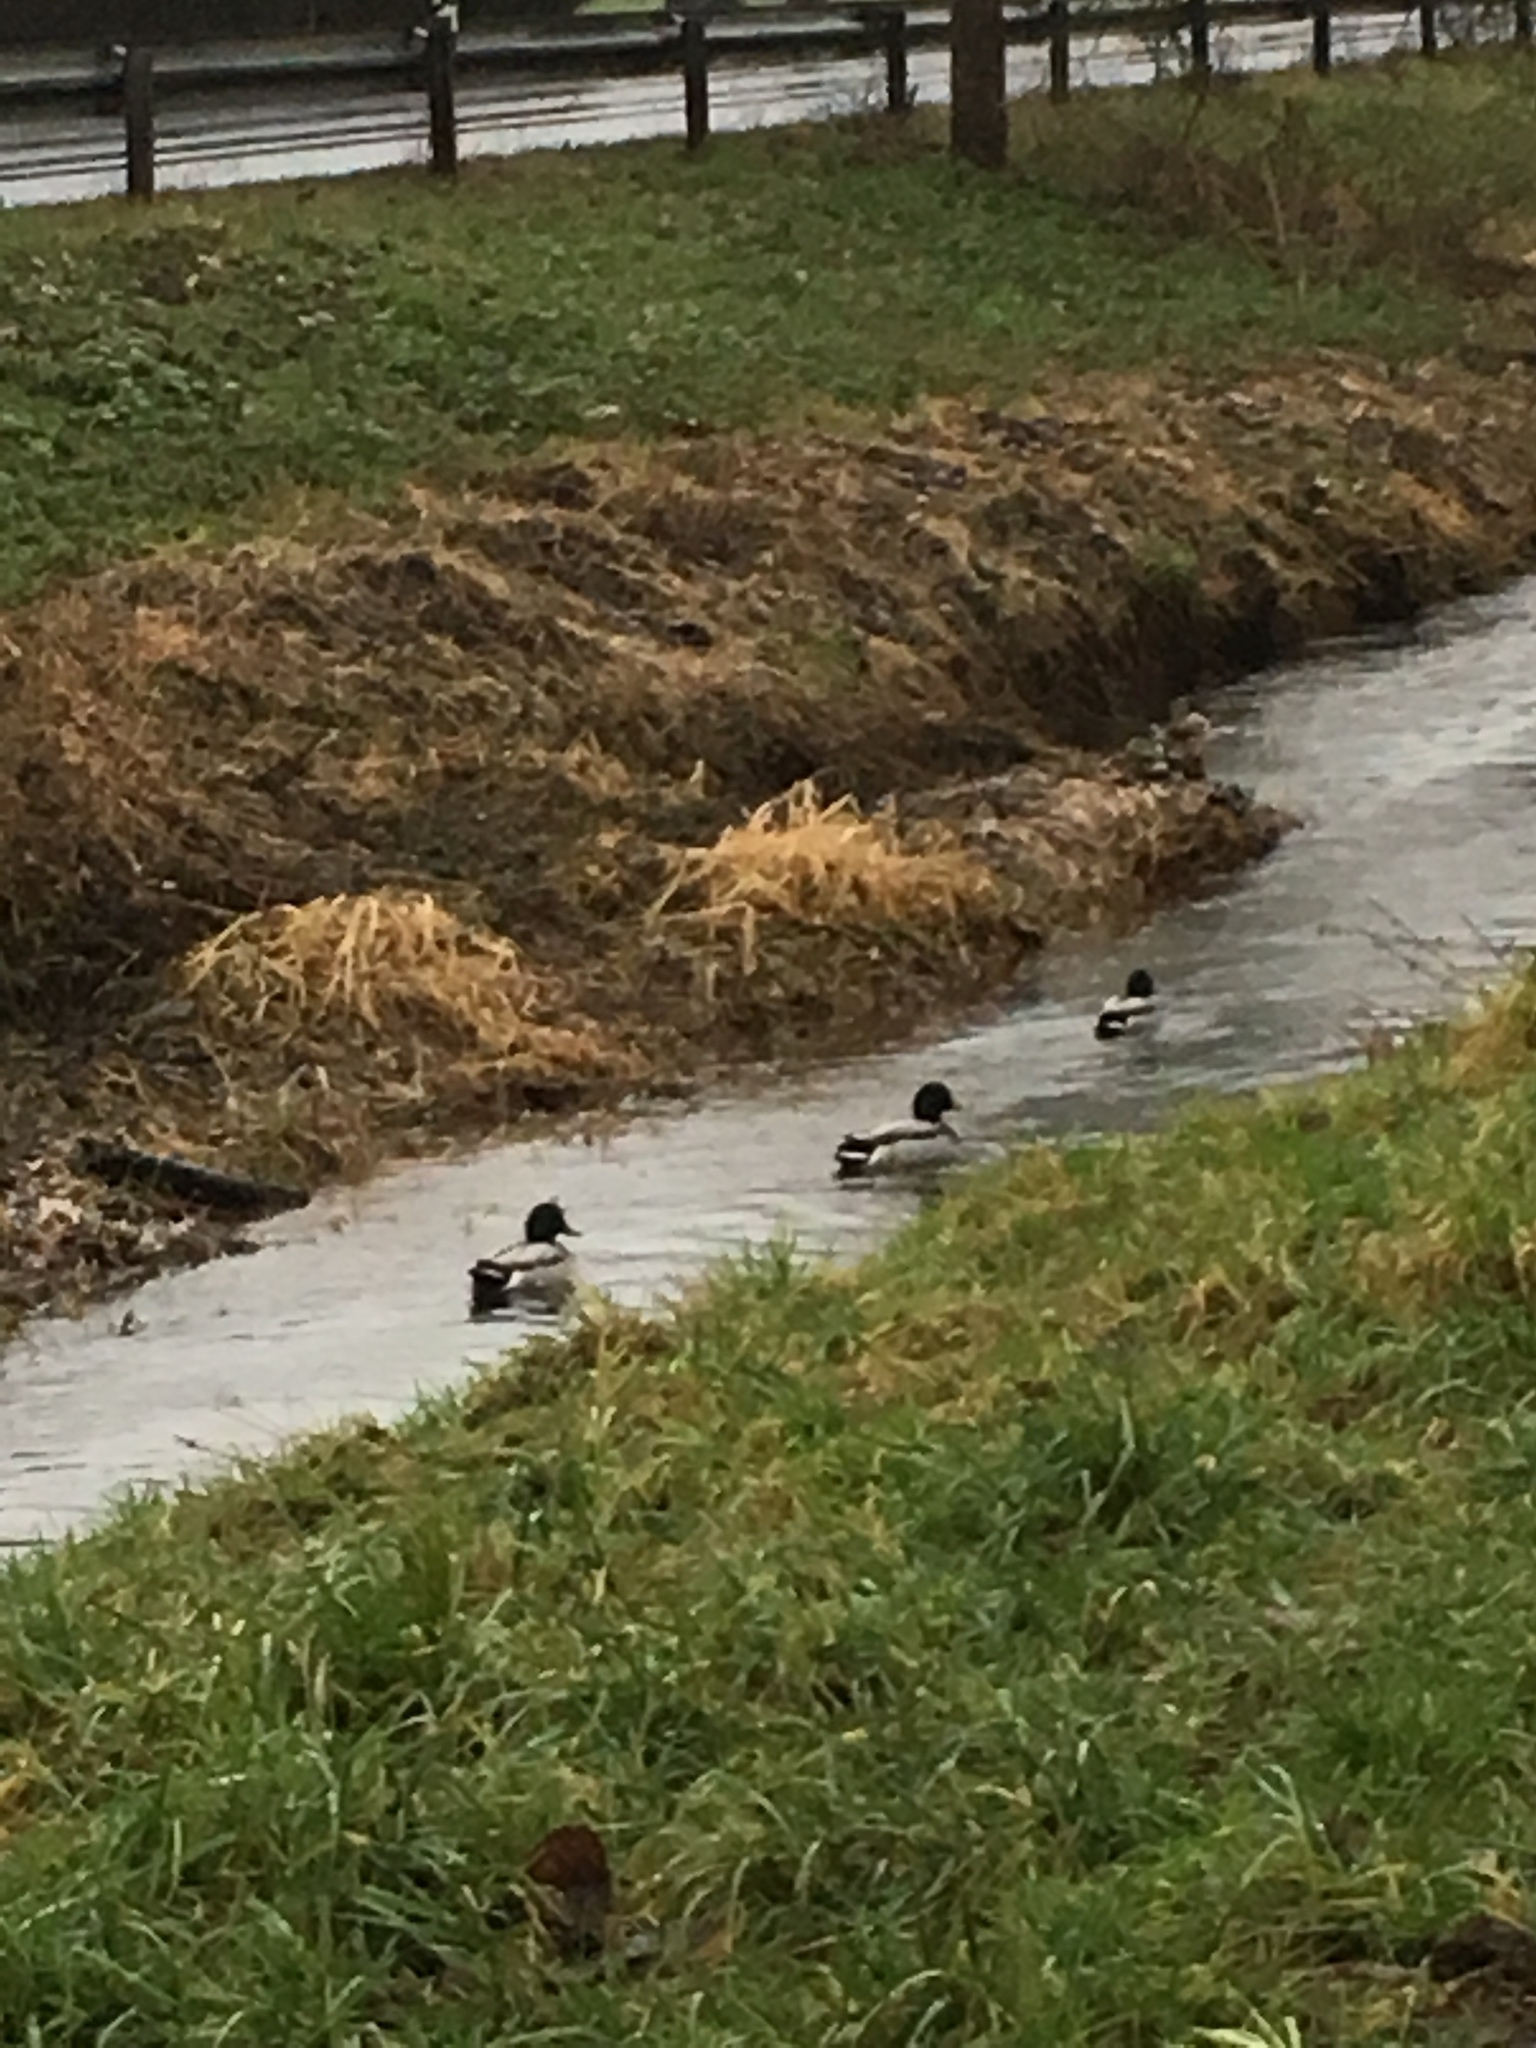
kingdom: Animalia
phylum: Chordata
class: Aves
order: Anseriformes
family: Anatidae
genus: Anas
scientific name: Anas platyrhynchos
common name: Mallard
